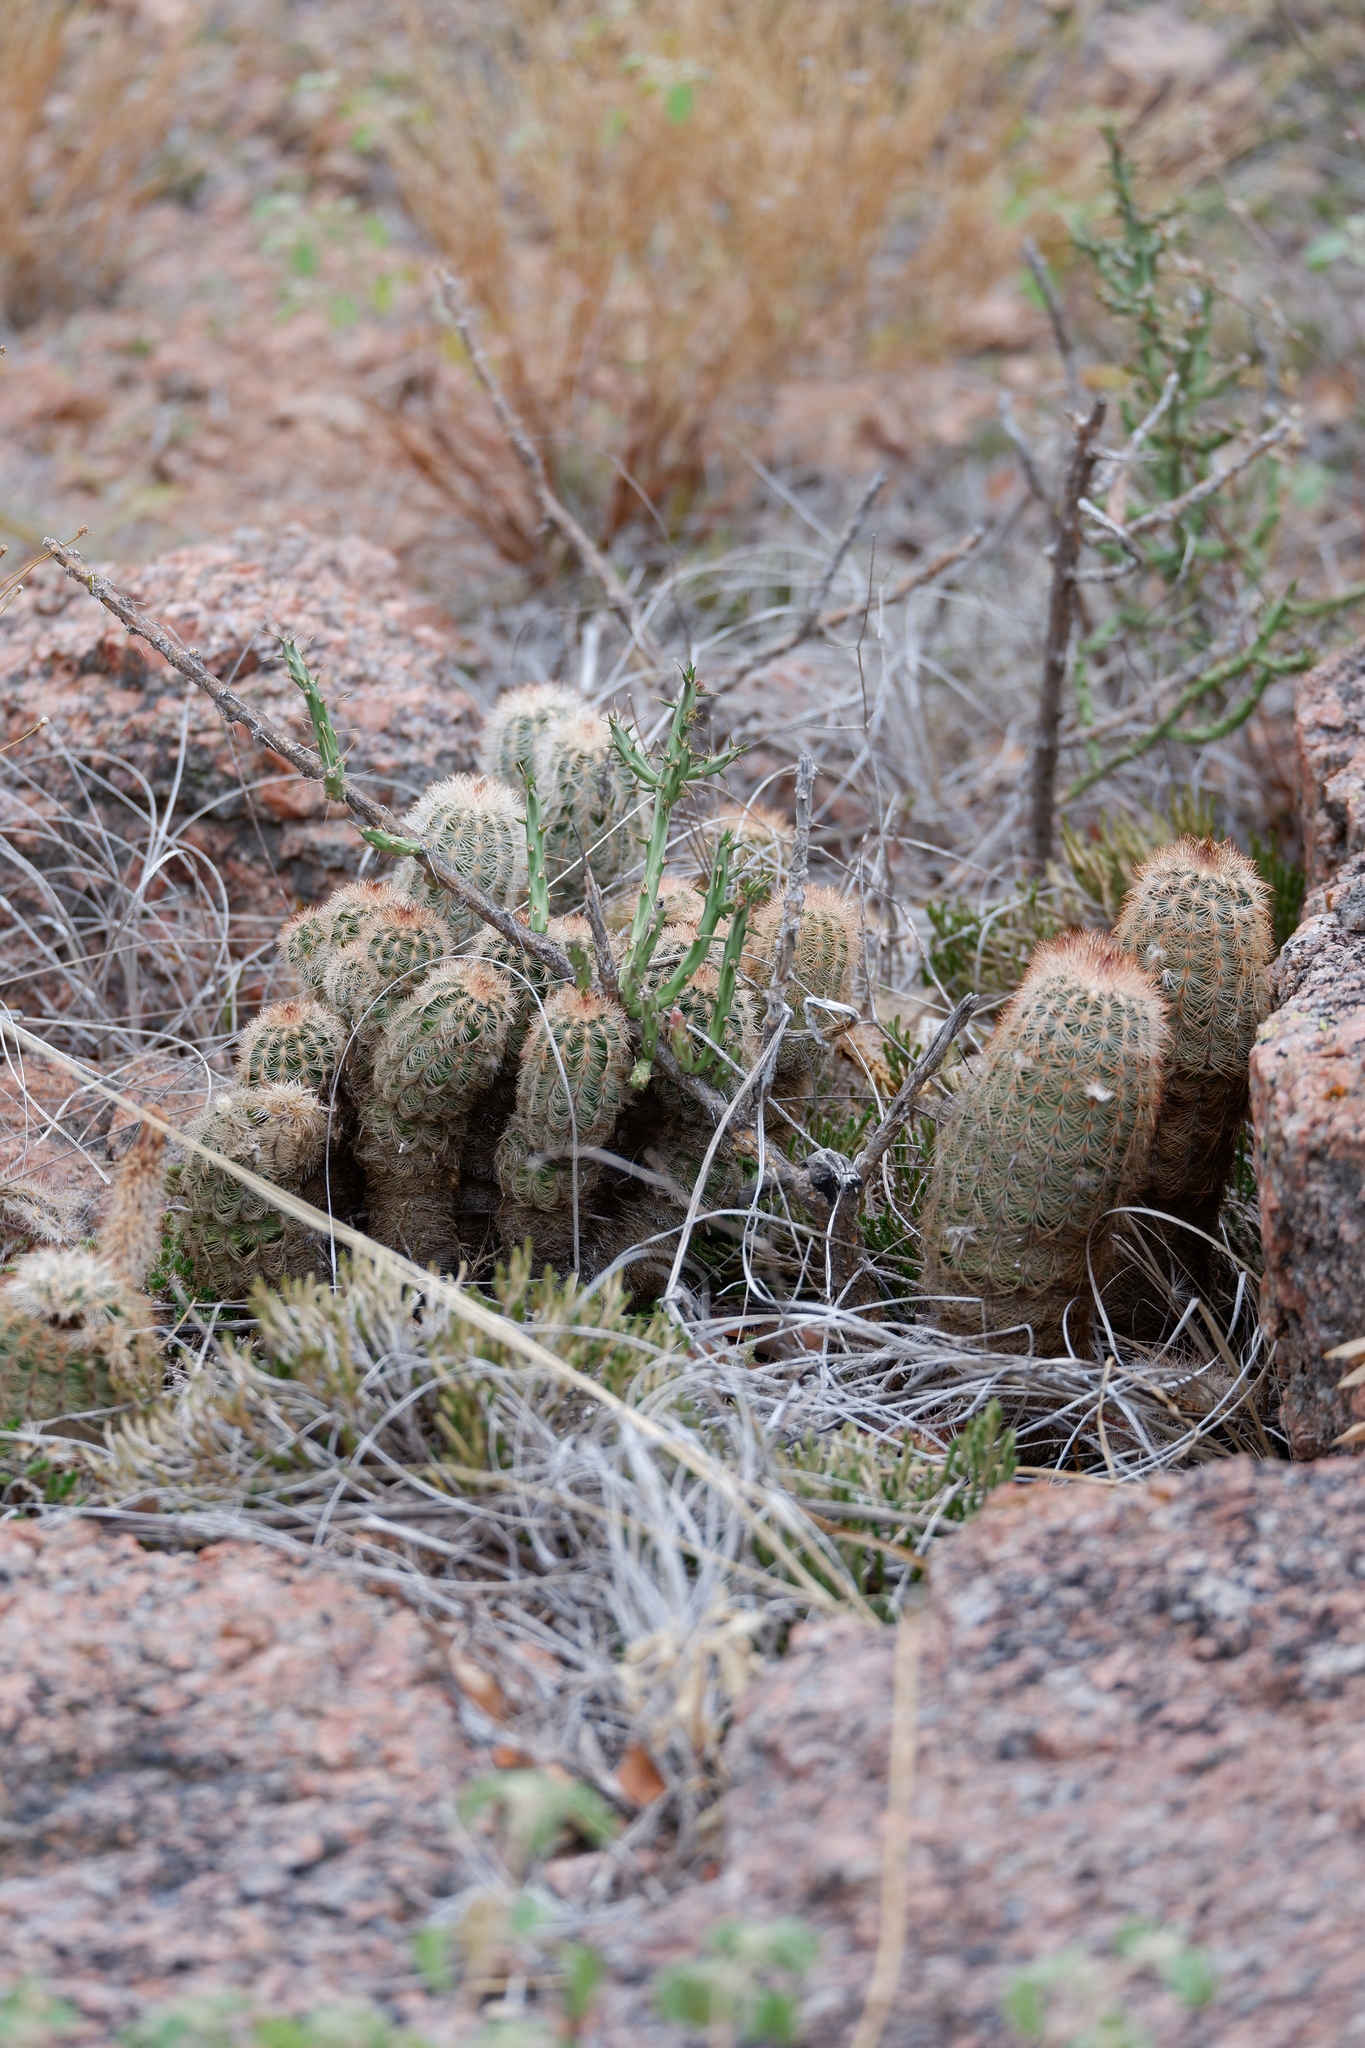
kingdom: Plantae
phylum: Tracheophyta
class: Magnoliopsida
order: Caryophyllales
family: Cactaceae
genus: Echinocereus
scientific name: Echinocereus reichenbachii
